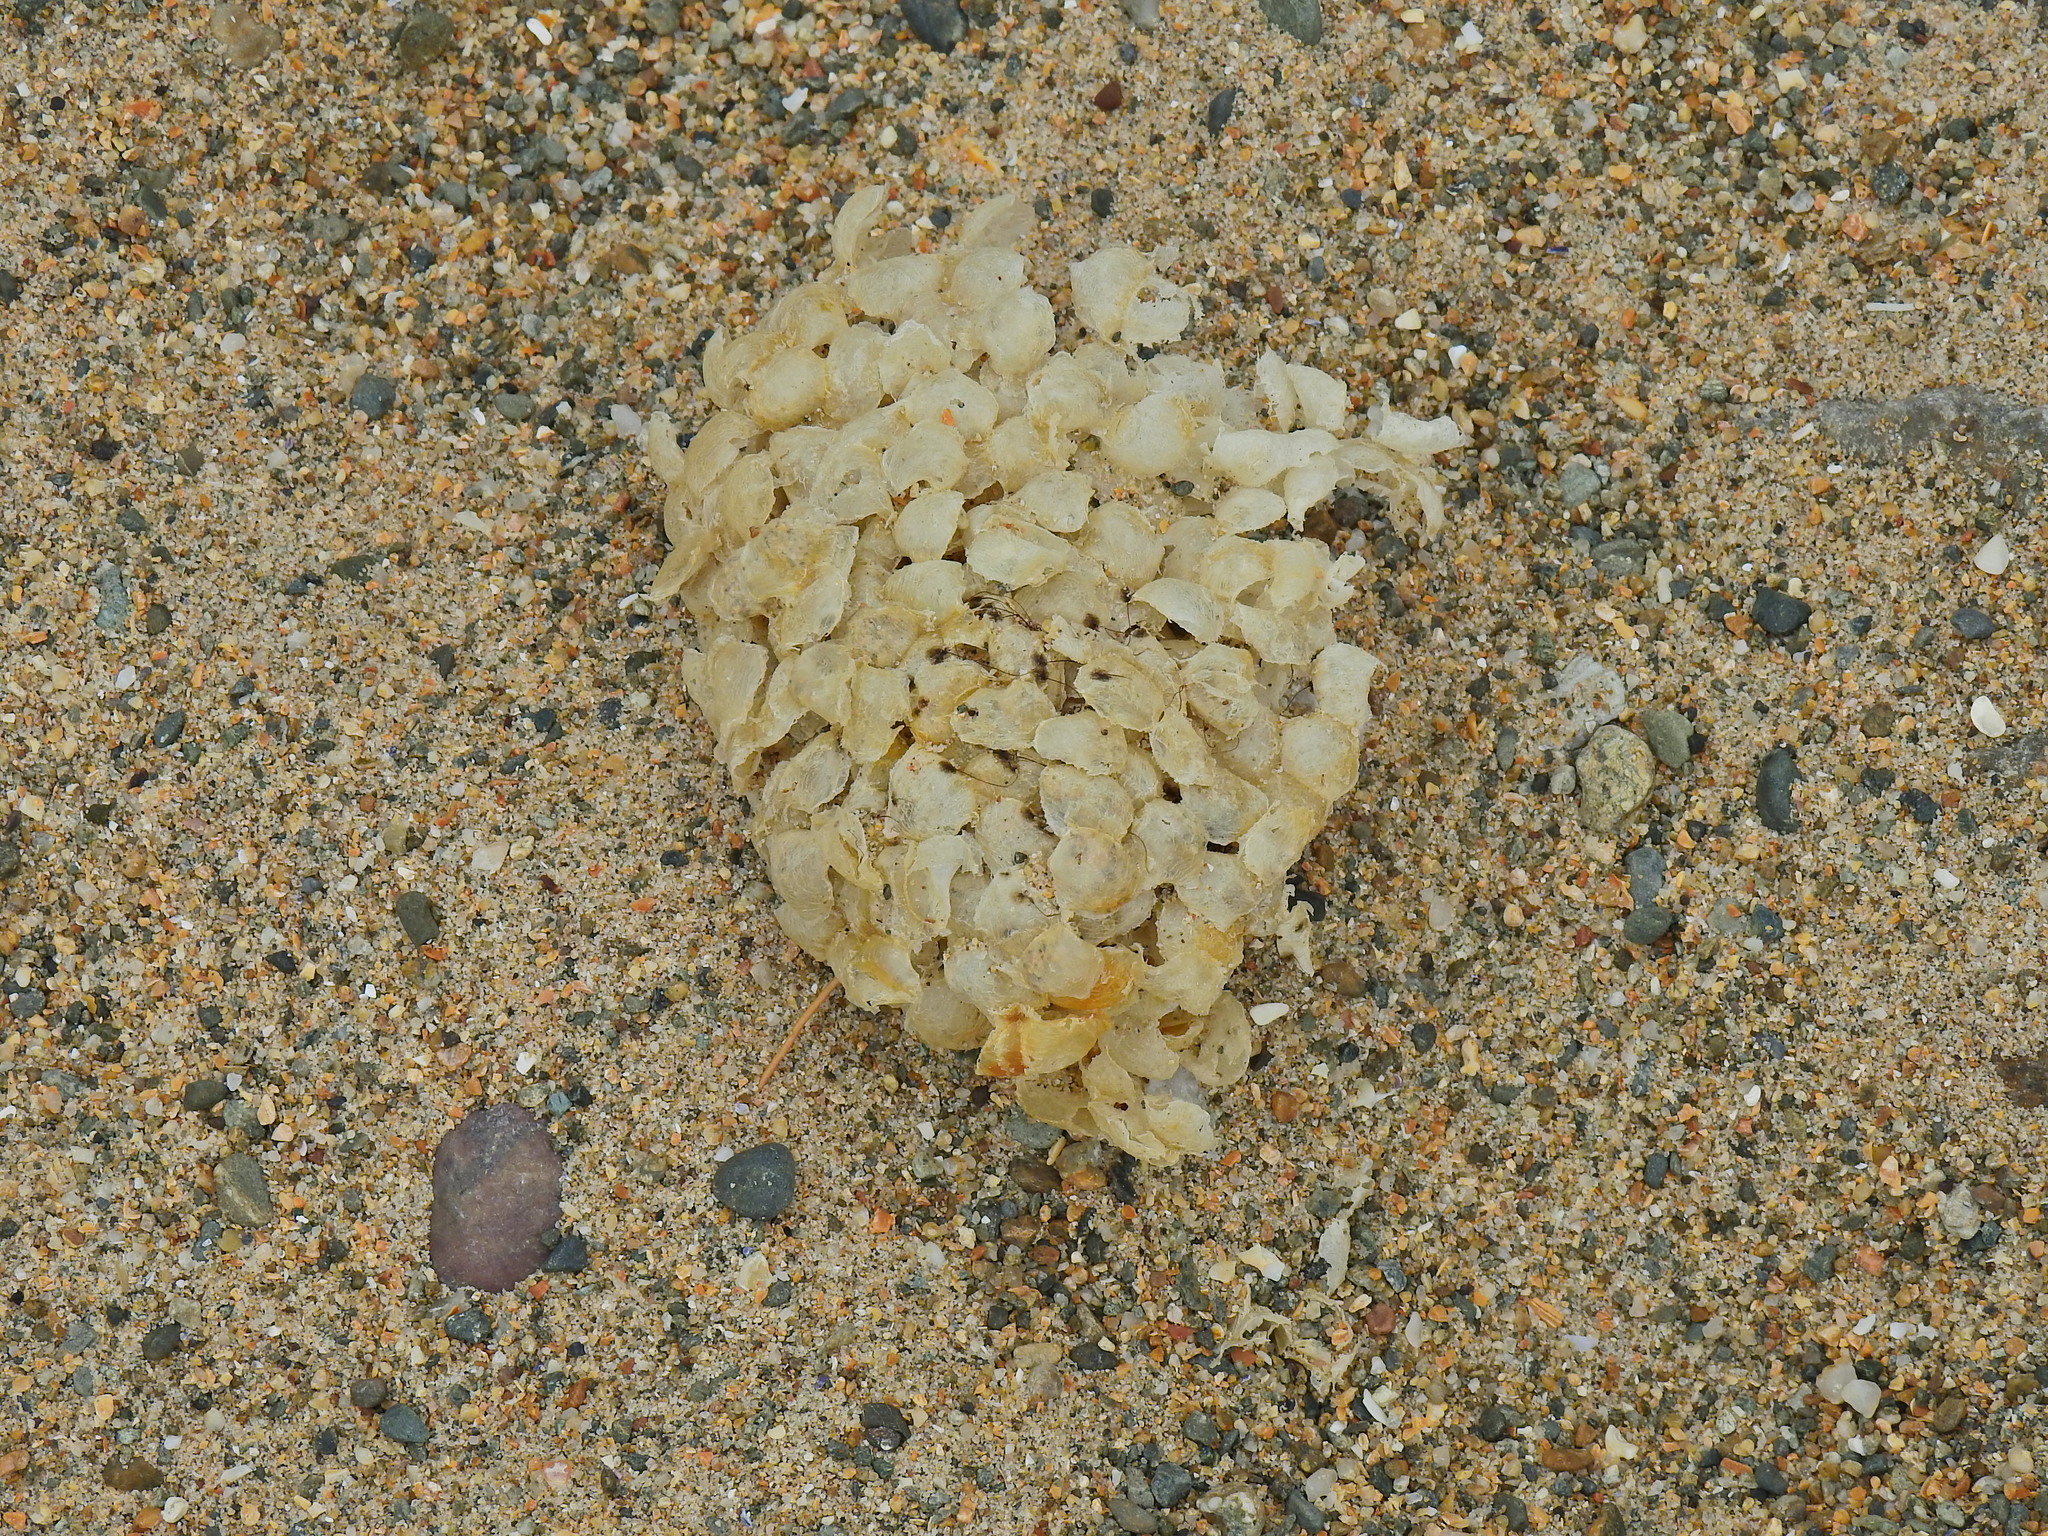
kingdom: Animalia
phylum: Mollusca
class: Gastropoda
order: Neogastropoda
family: Buccinidae
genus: Buccinum
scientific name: Buccinum undatum
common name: Common whelk
